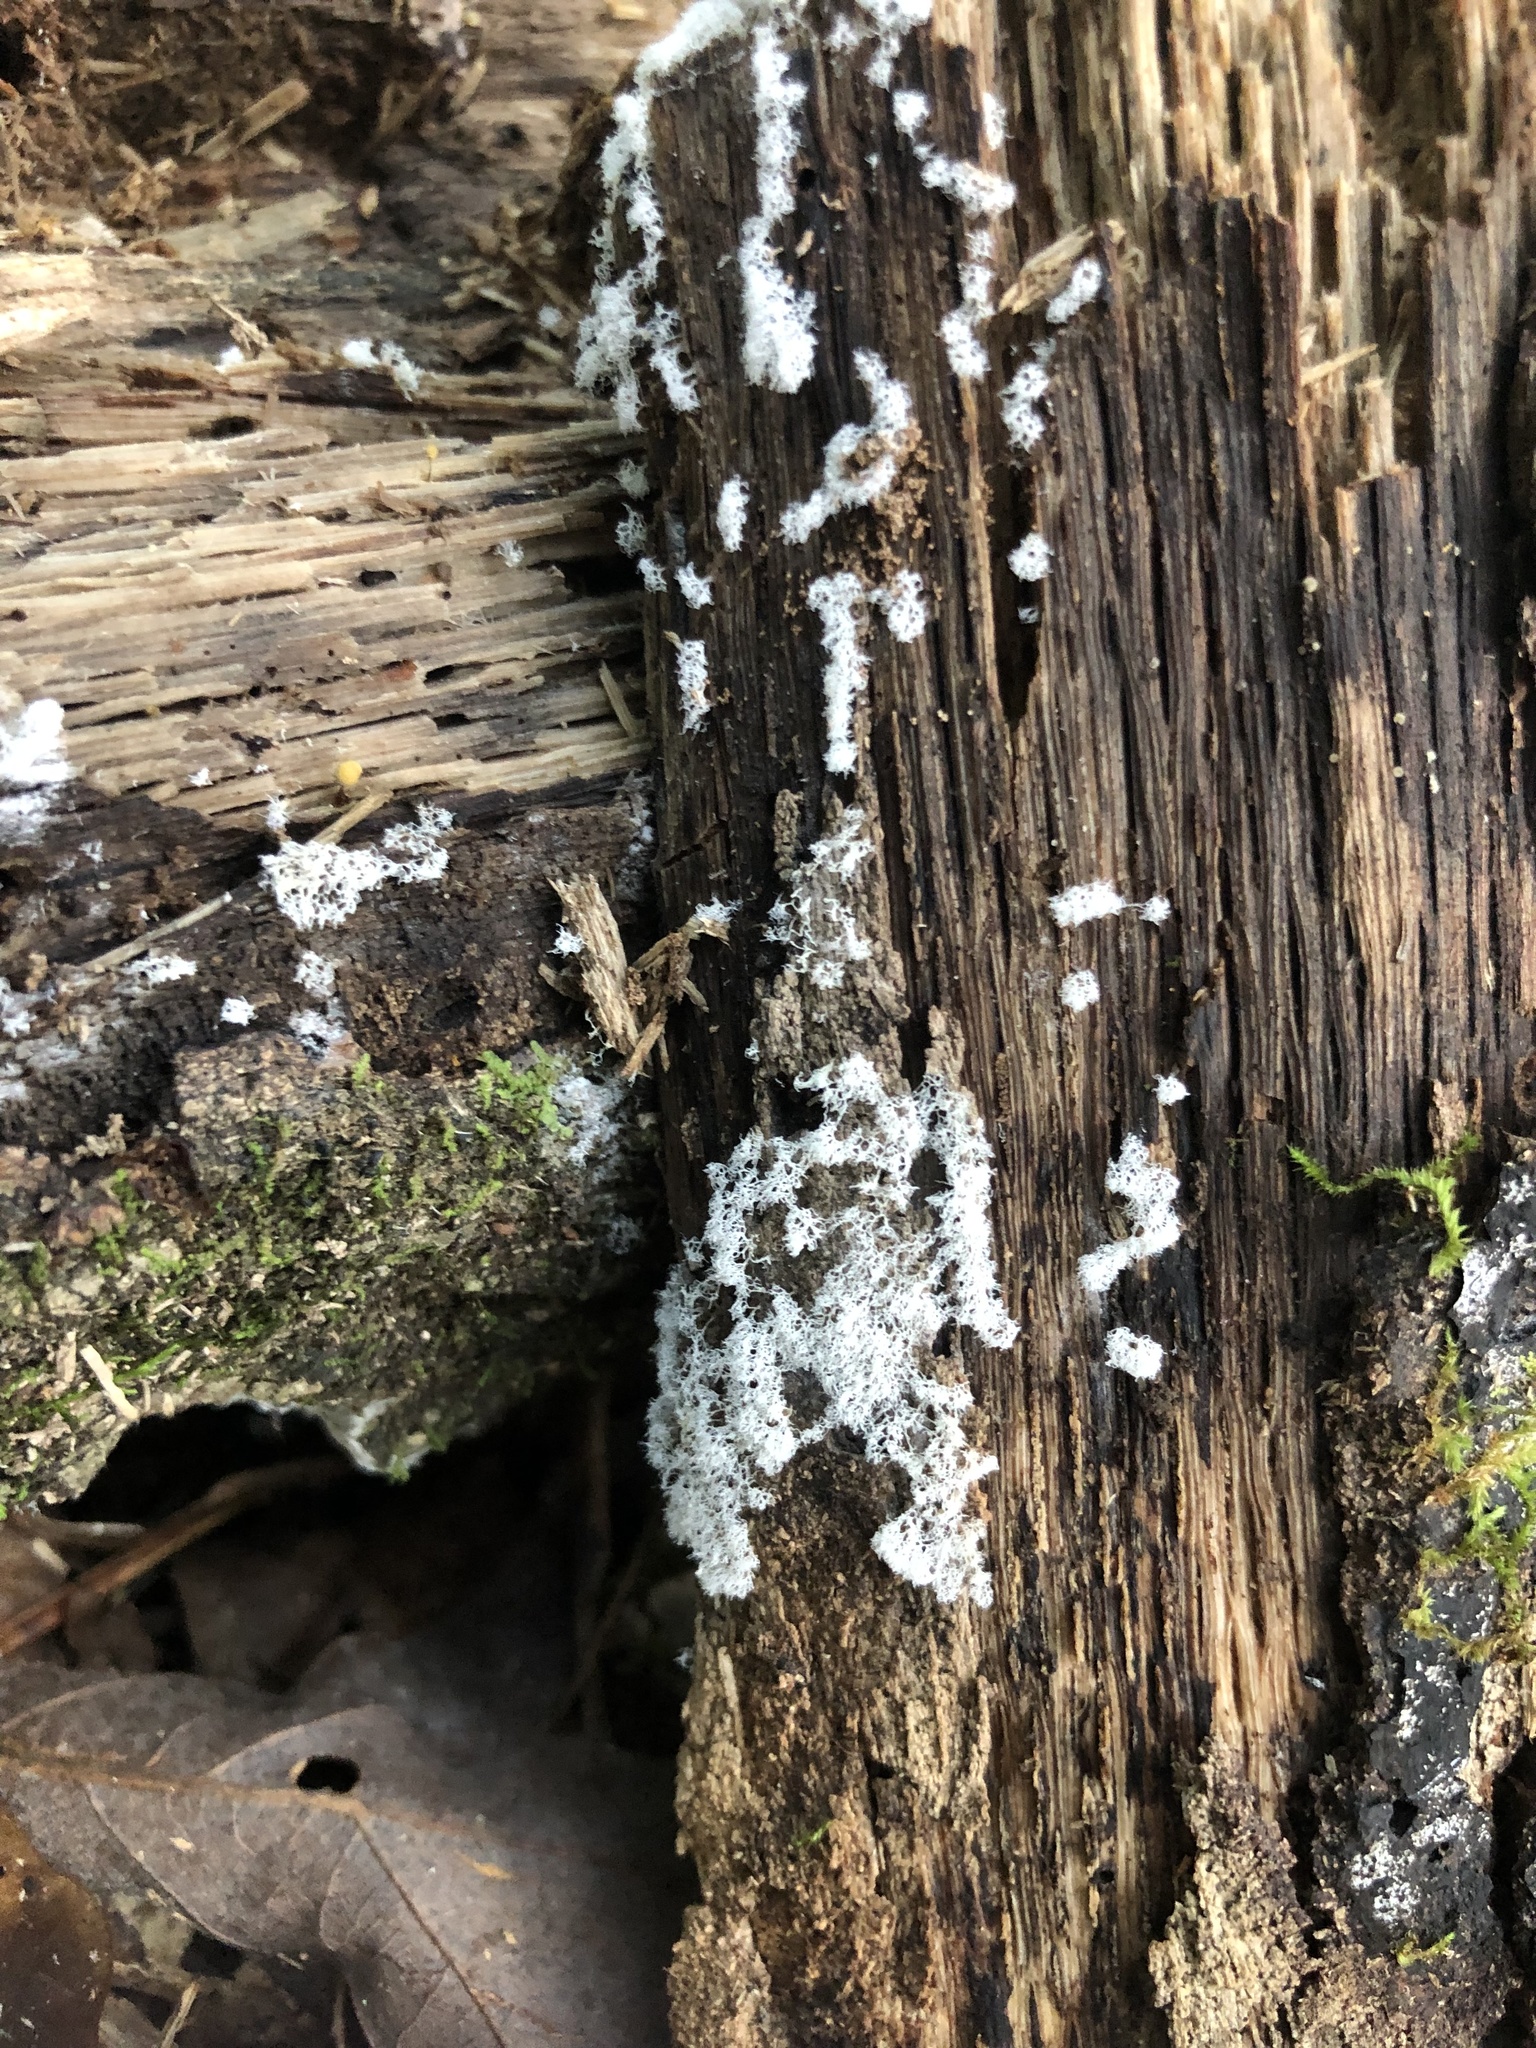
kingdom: Protozoa
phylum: Mycetozoa
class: Protosteliomycetes
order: Ceratiomyxales
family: Ceratiomyxaceae
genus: Ceratiomyxa
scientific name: Ceratiomyxa fruticulosa
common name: Honeycomb coral slime mold
